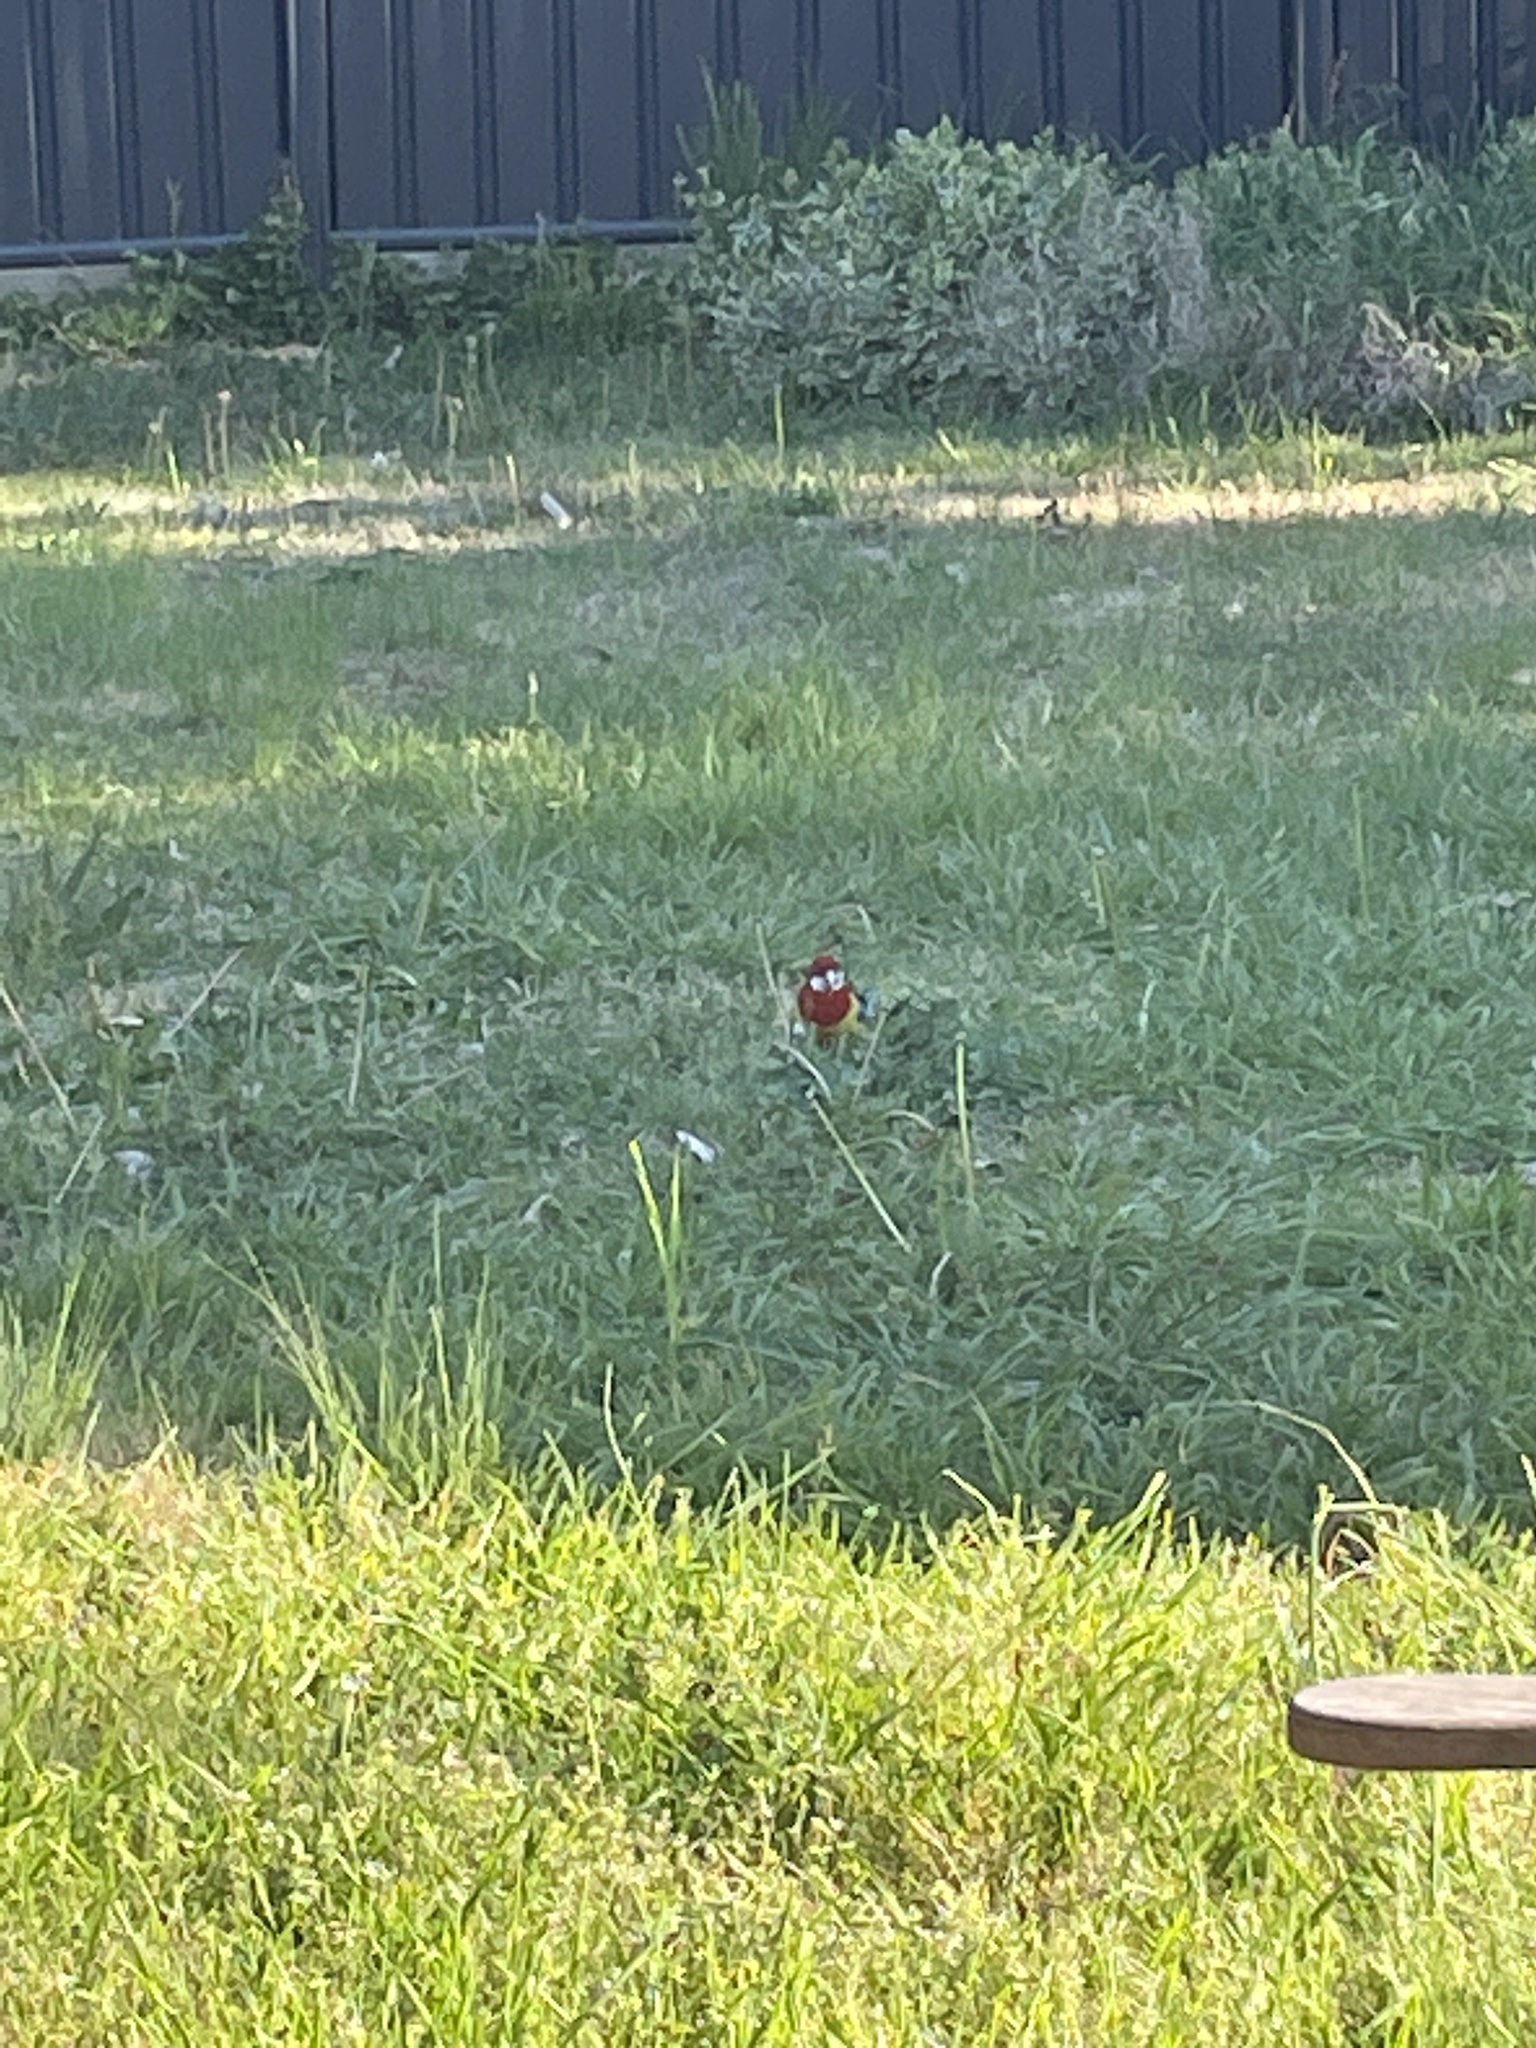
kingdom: Animalia
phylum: Chordata
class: Aves
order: Psittaciformes
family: Psittacidae
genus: Platycercus
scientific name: Platycercus eximius
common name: Eastern rosella
